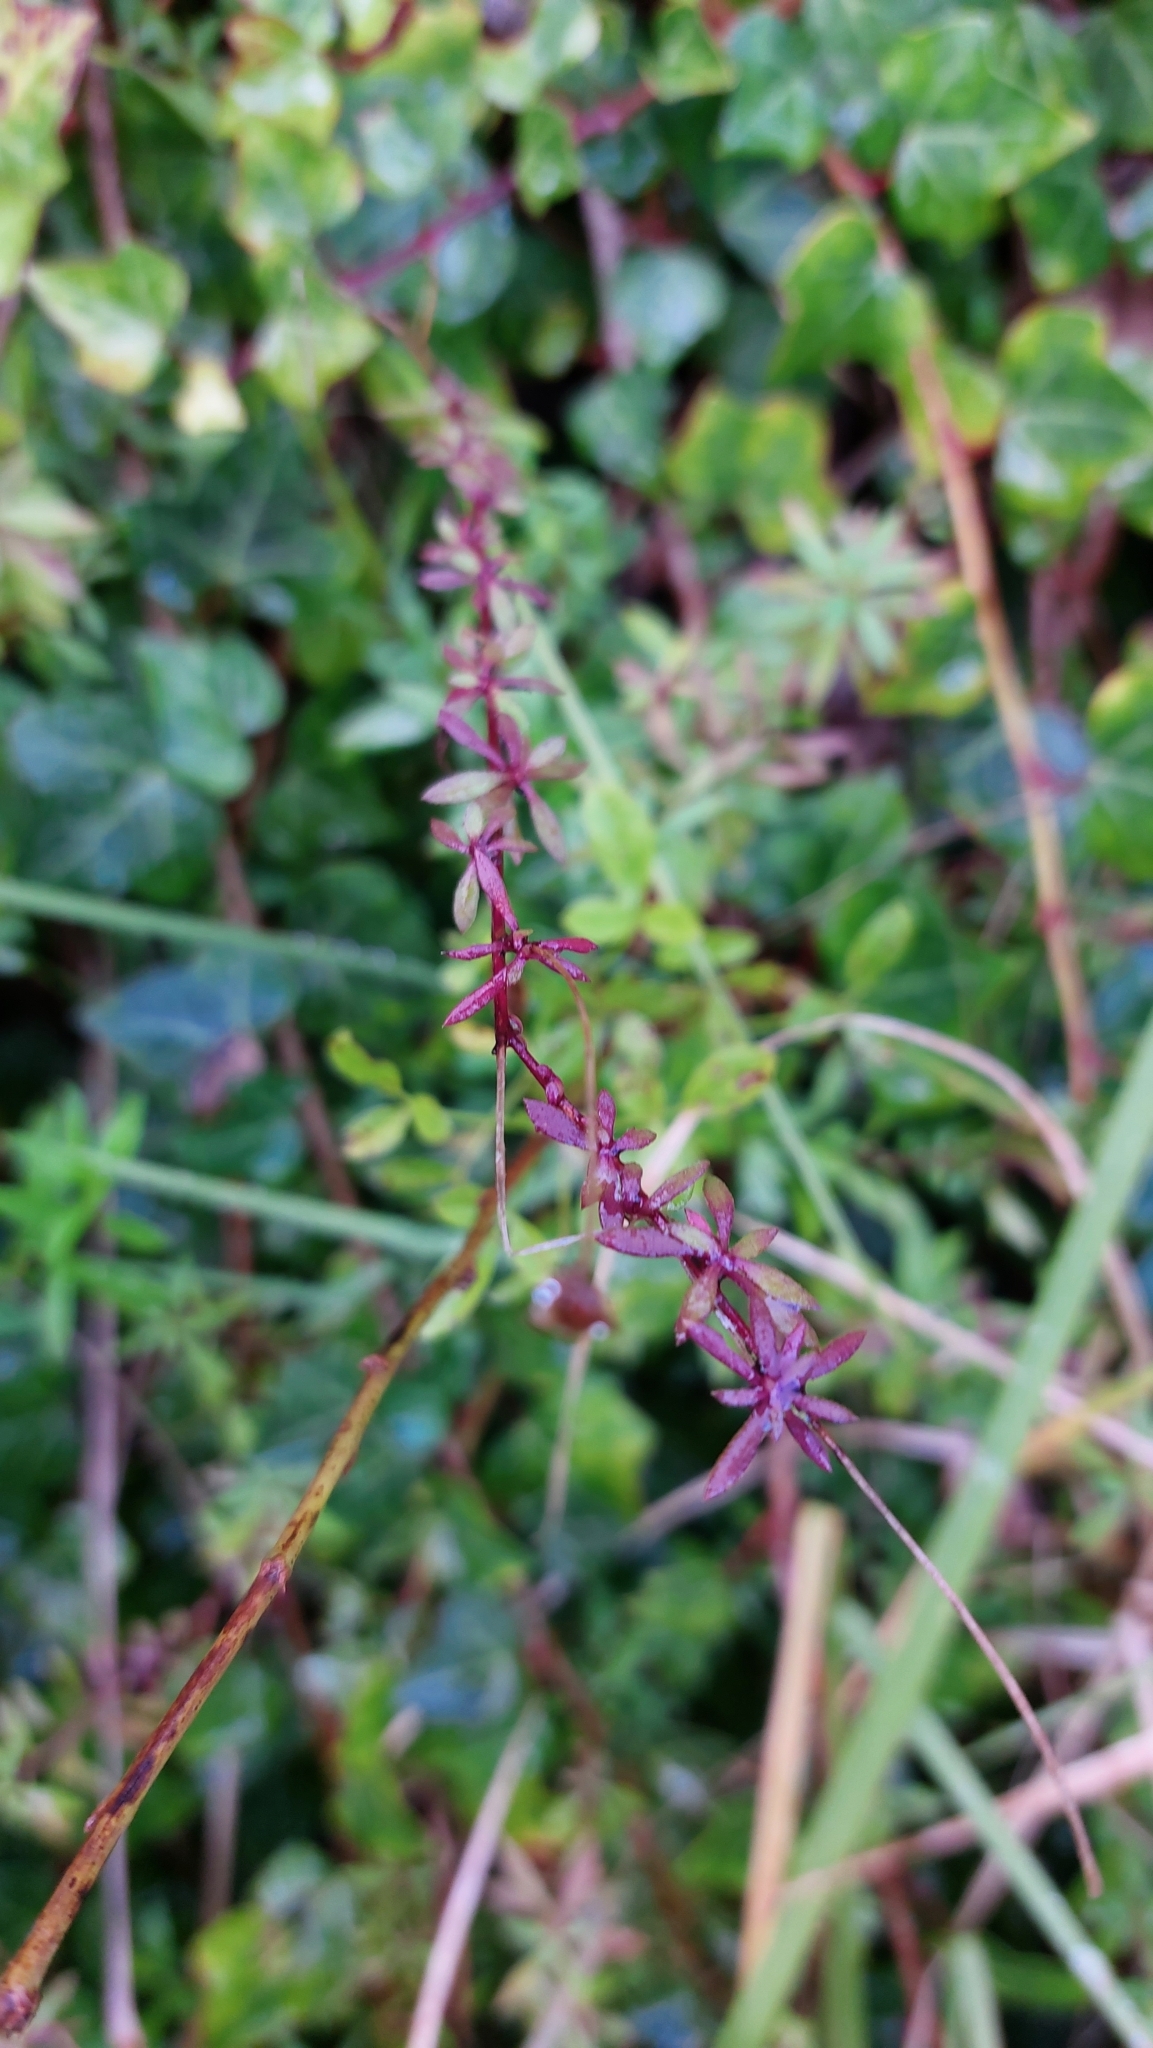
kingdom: Plantae
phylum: Tracheophyta
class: Magnoliopsida
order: Caryophyllales
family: Amaranthaceae
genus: Achyranthes
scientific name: Achyranthes aspera
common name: Devil's horsewhip
